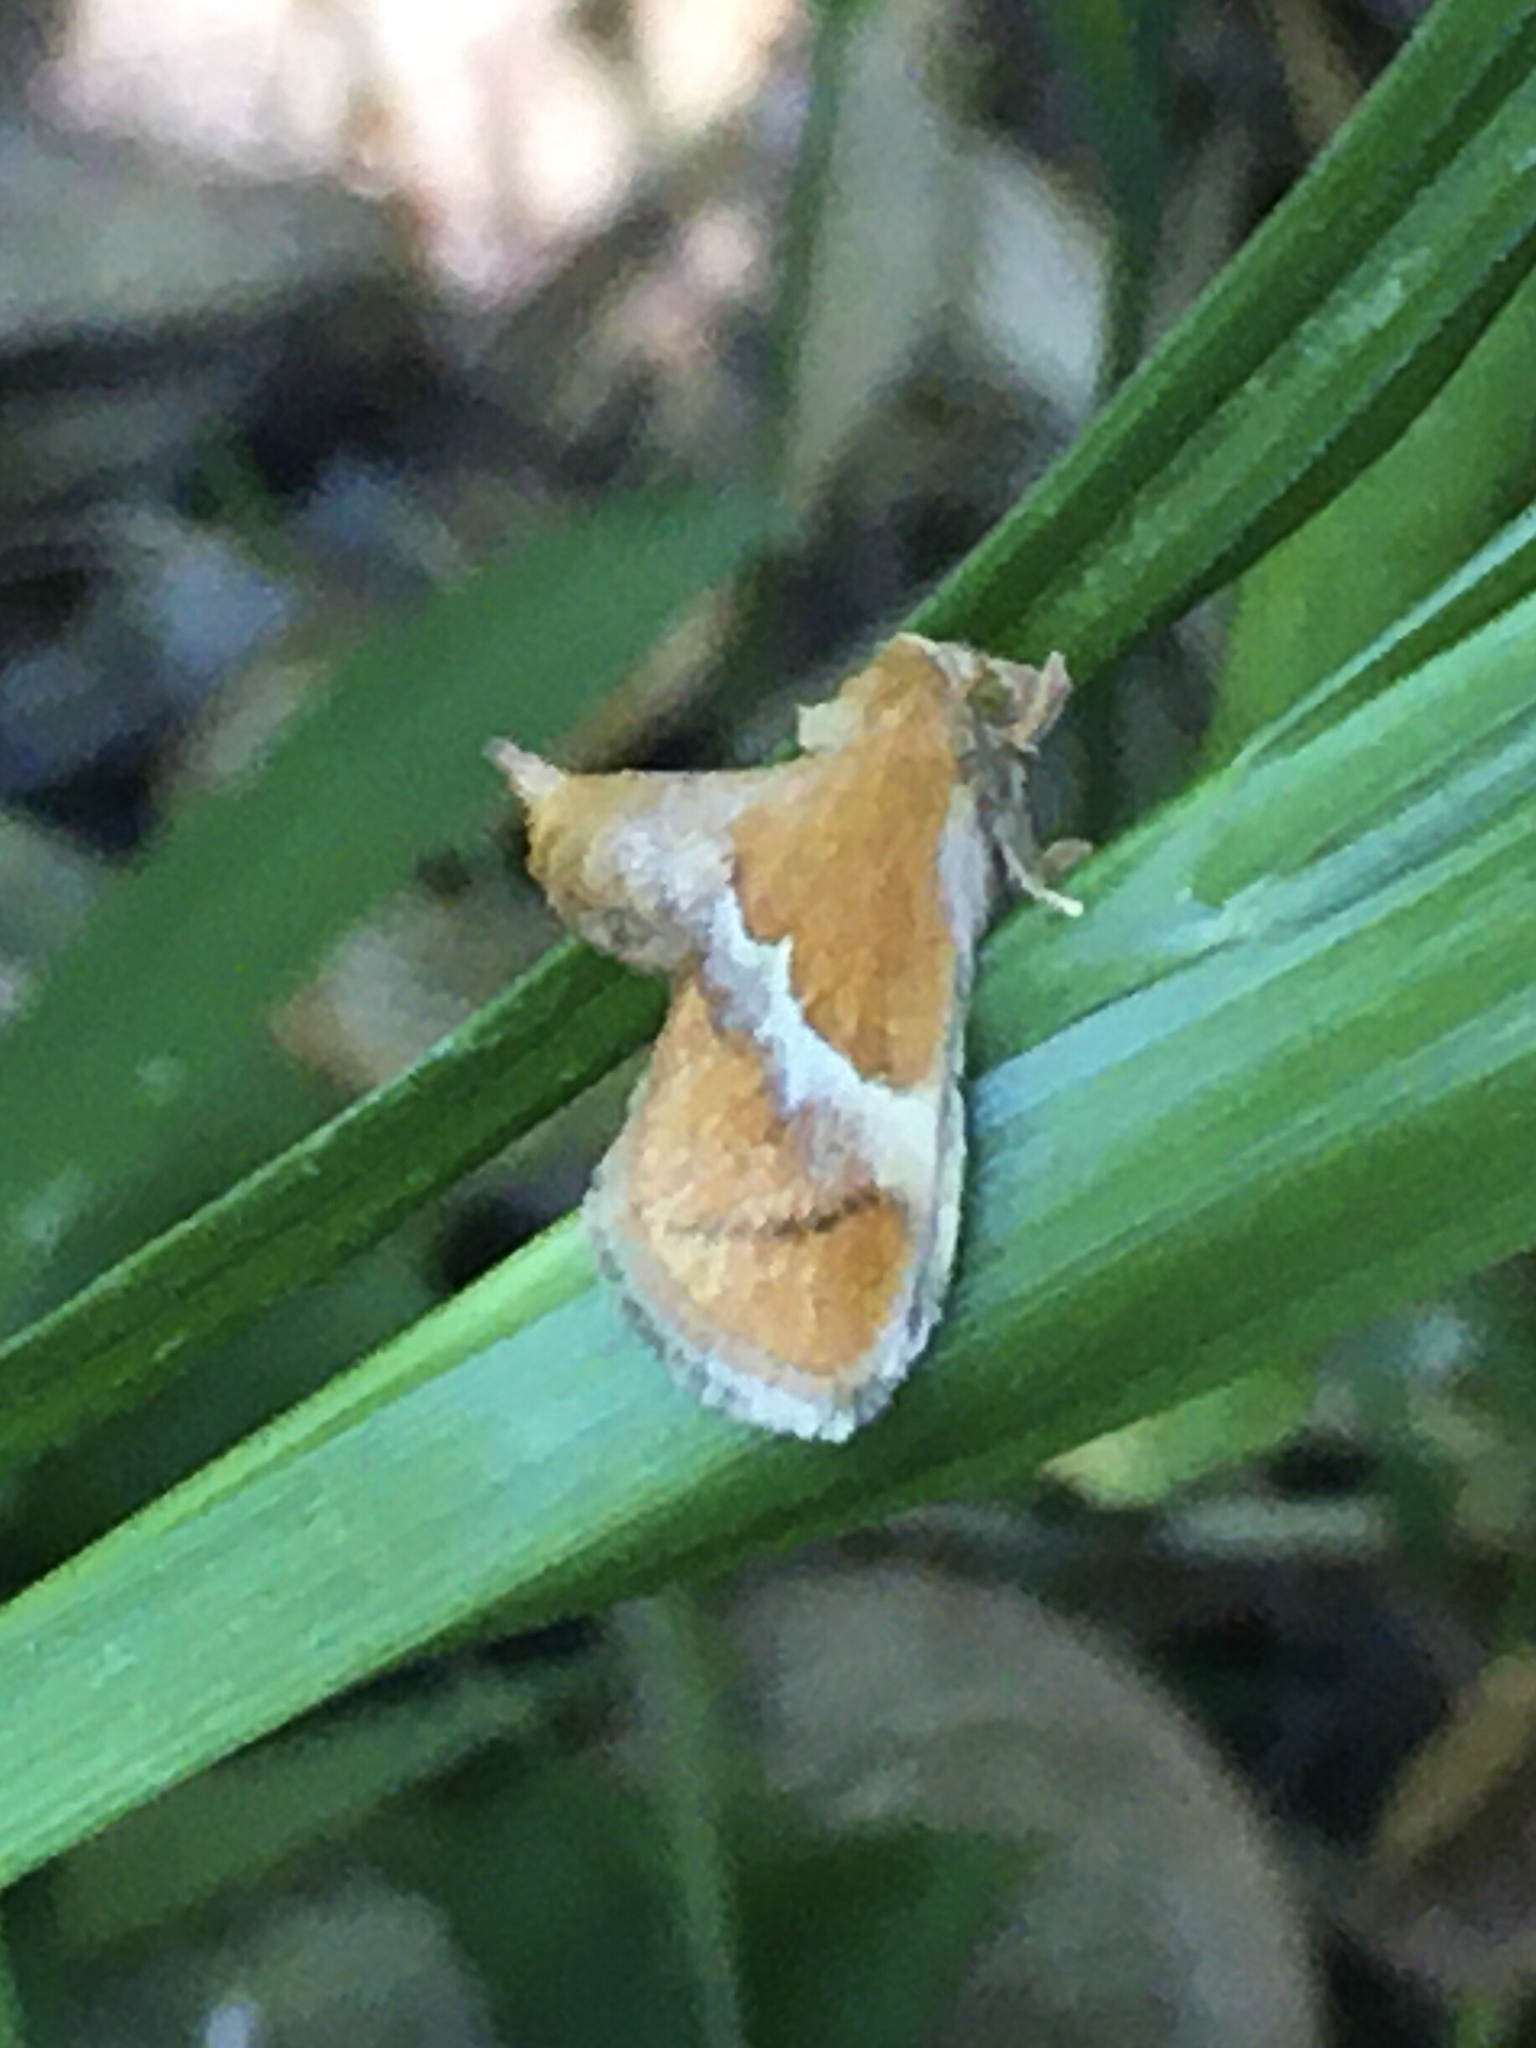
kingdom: Animalia
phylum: Arthropoda
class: Insecta
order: Lepidoptera
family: Limacodidae
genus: Lithacodes
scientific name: Lithacodes fasciola
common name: Yellow-shouldered slug moth
